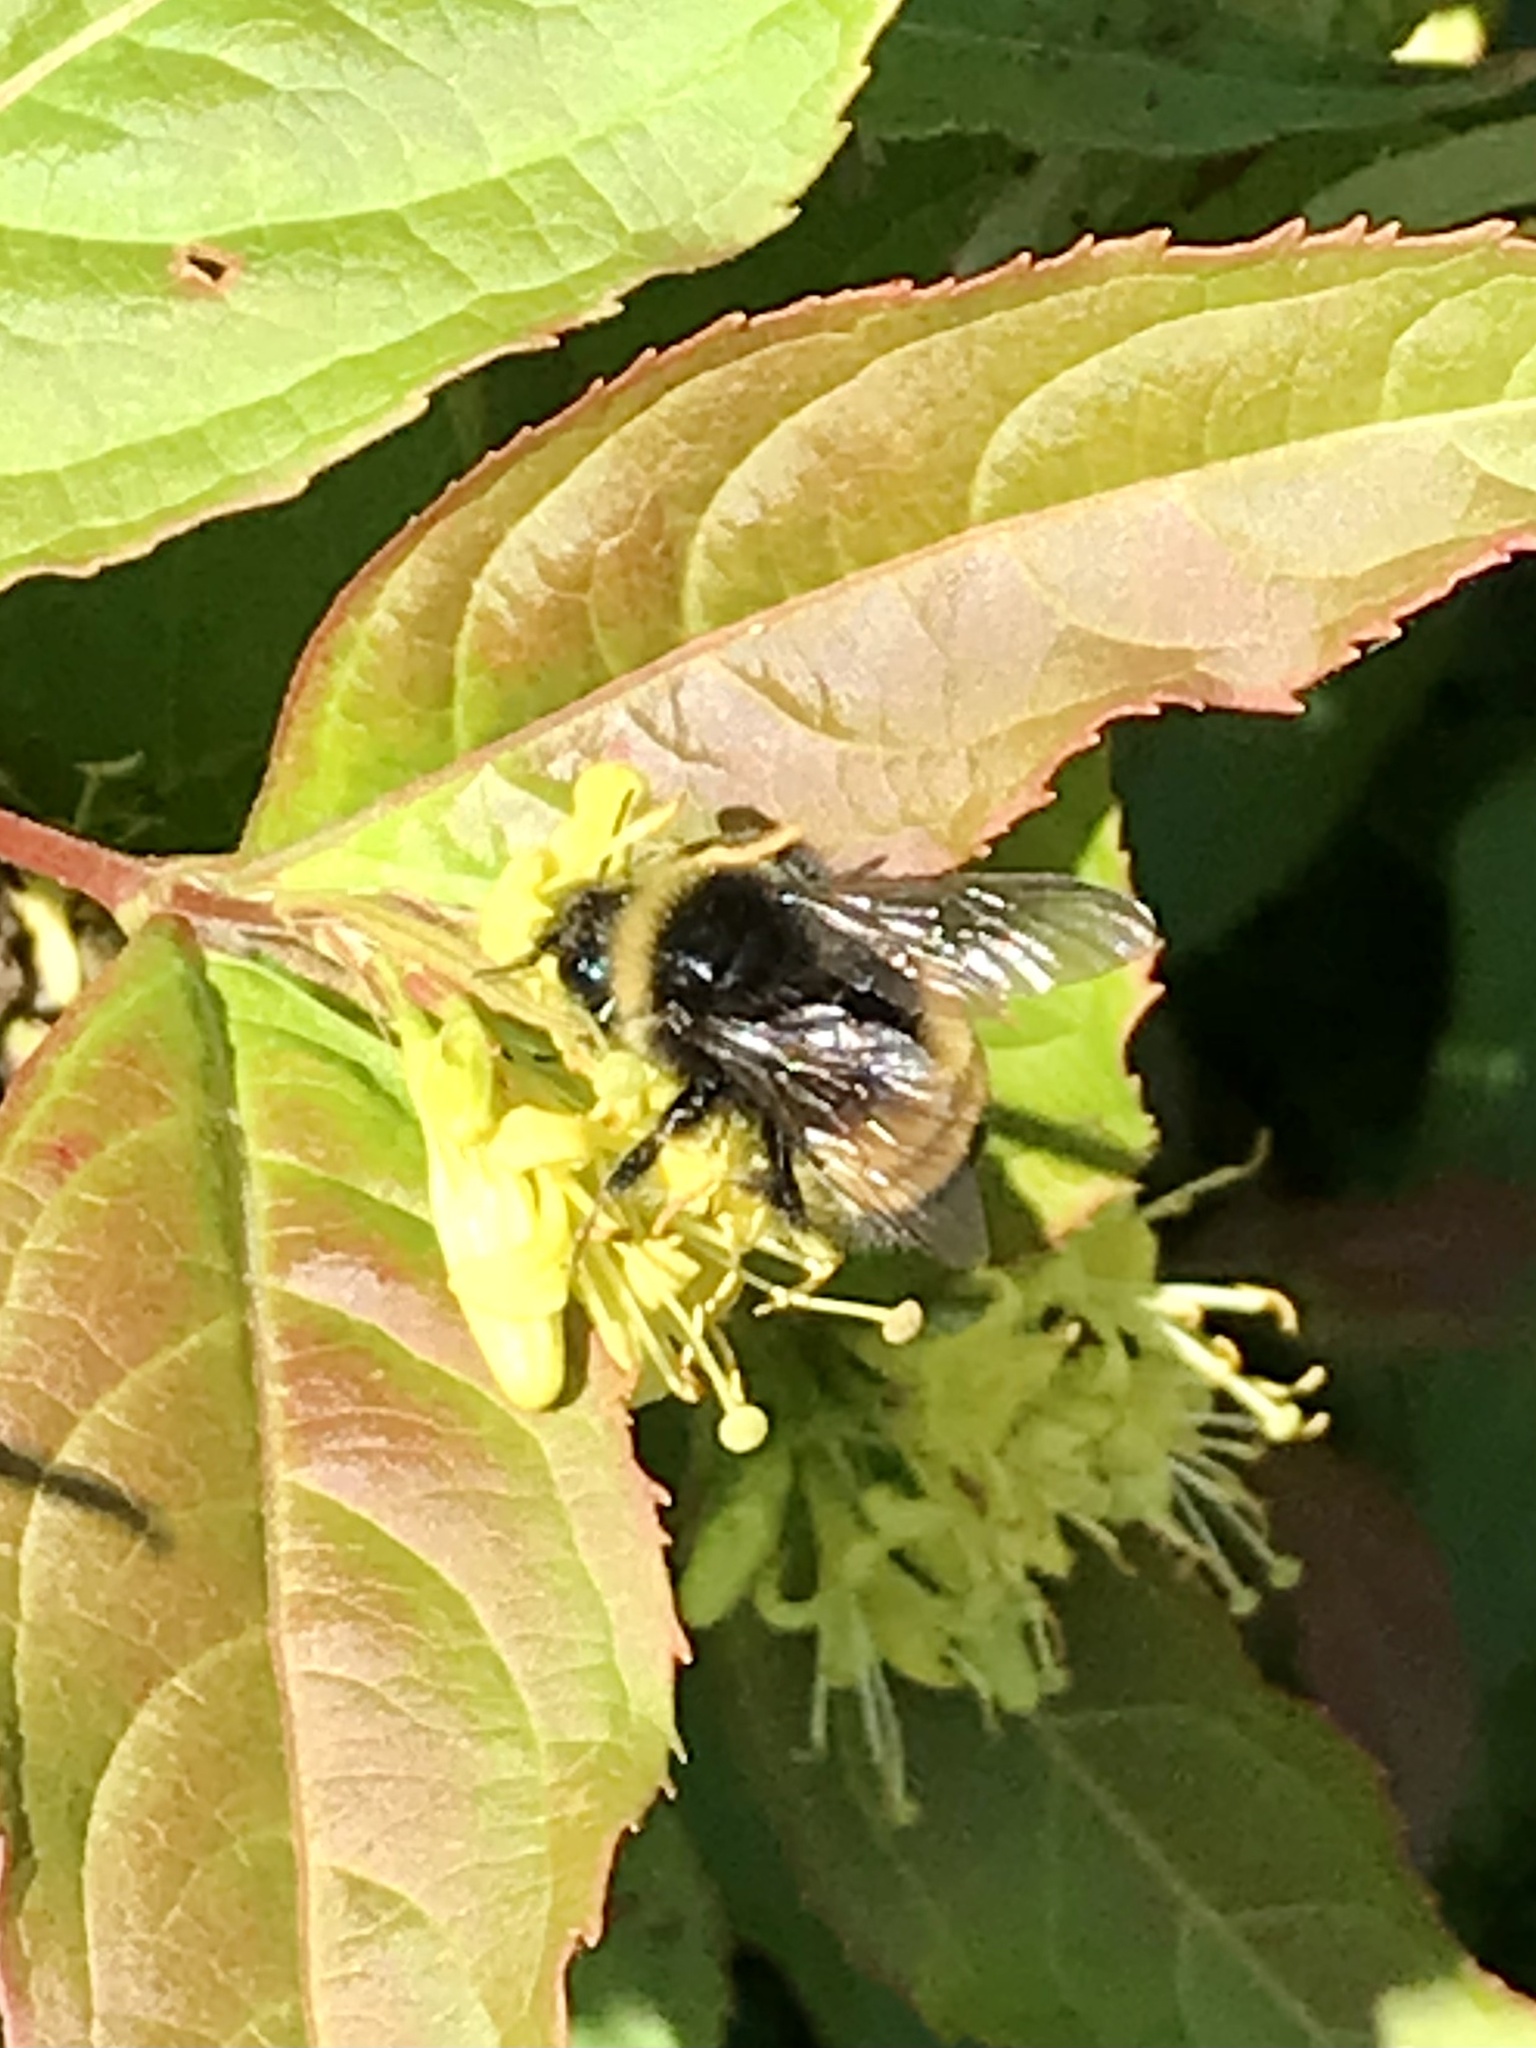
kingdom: Animalia
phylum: Arthropoda
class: Insecta
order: Hymenoptera
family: Apidae
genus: Bombus
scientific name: Bombus terricola
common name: Yellow-banded bumble bee
